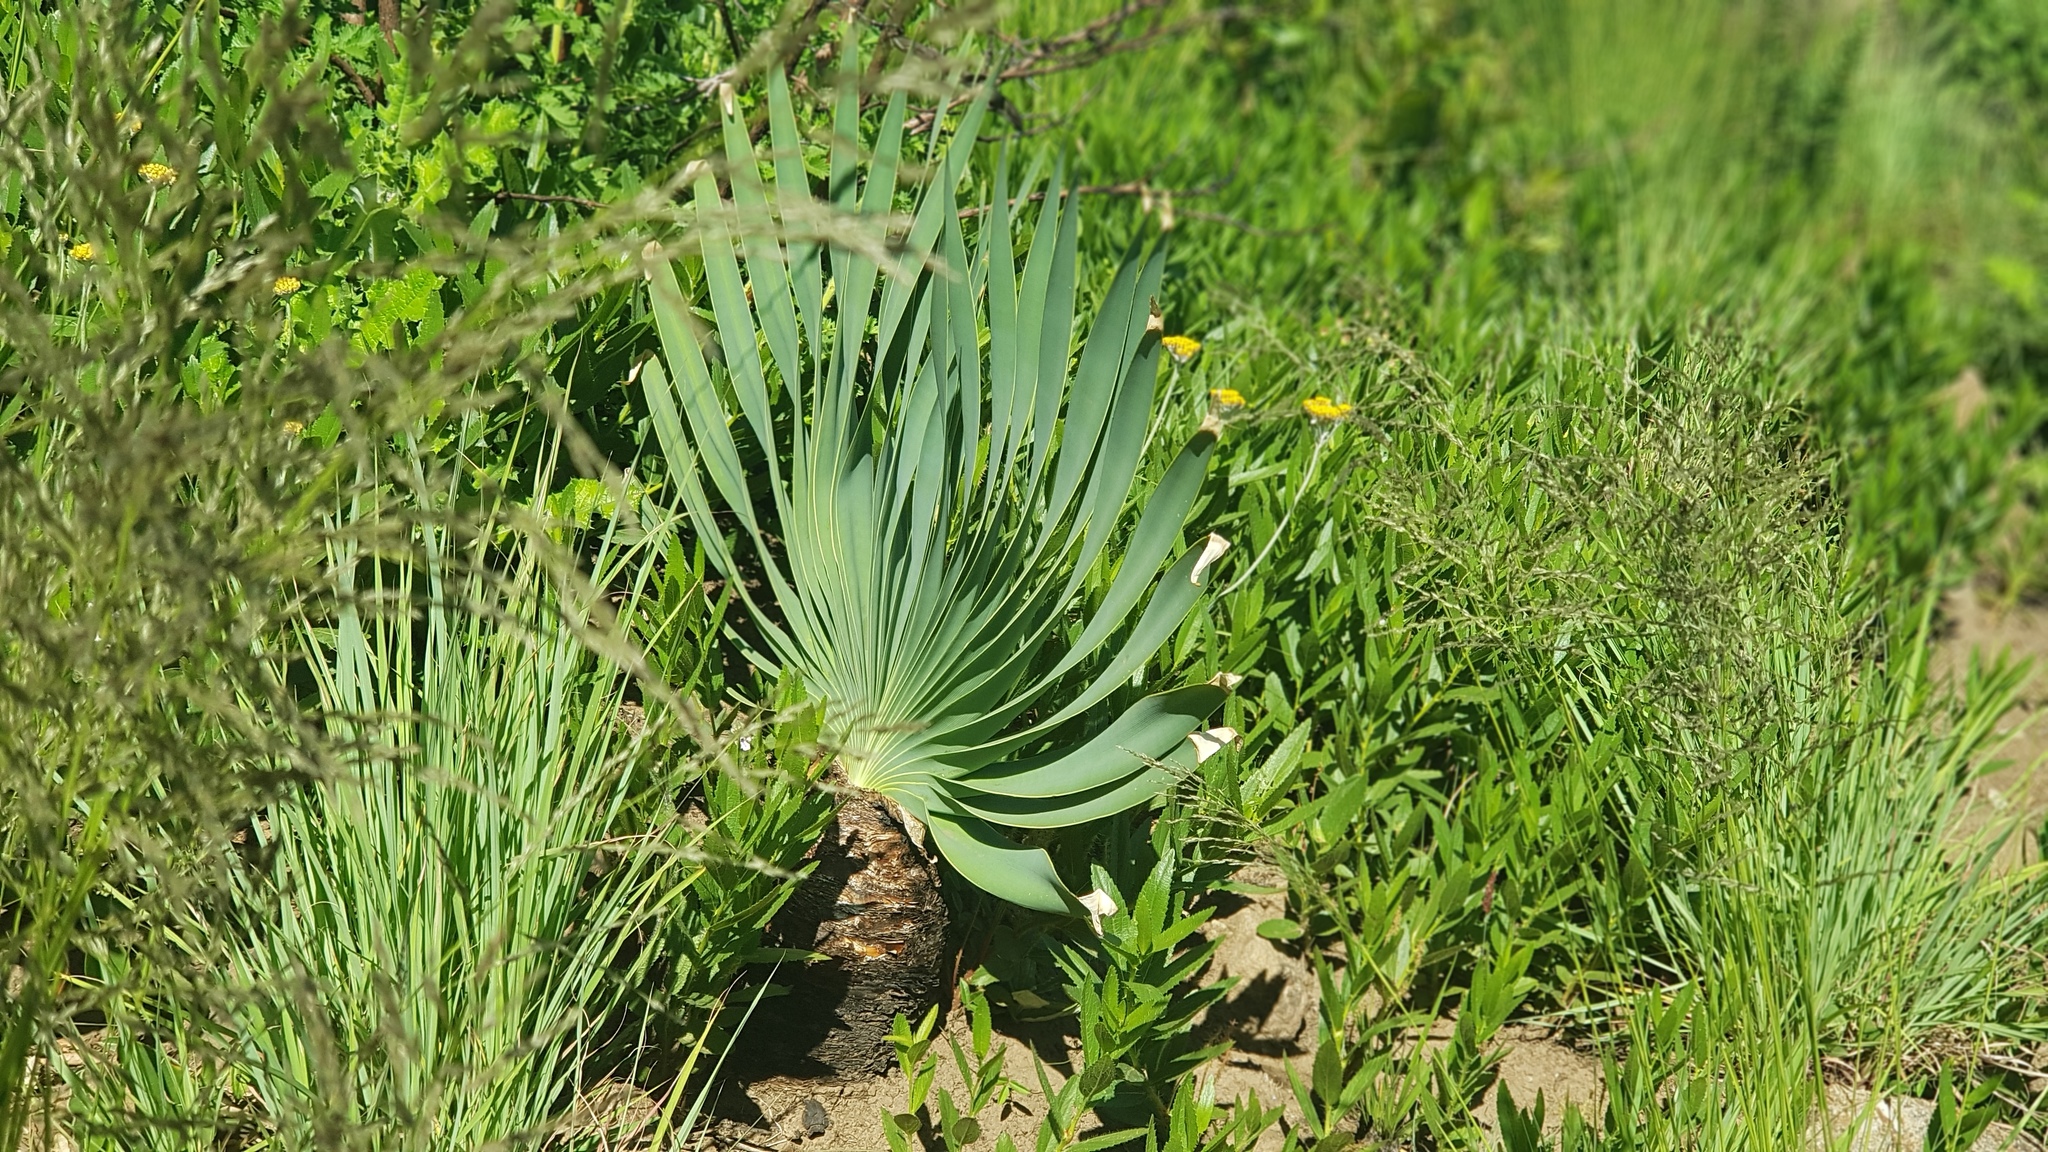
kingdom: Plantae
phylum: Tracheophyta
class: Liliopsida
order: Asparagales
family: Amaryllidaceae
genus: Boophone
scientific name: Boophone disticha
